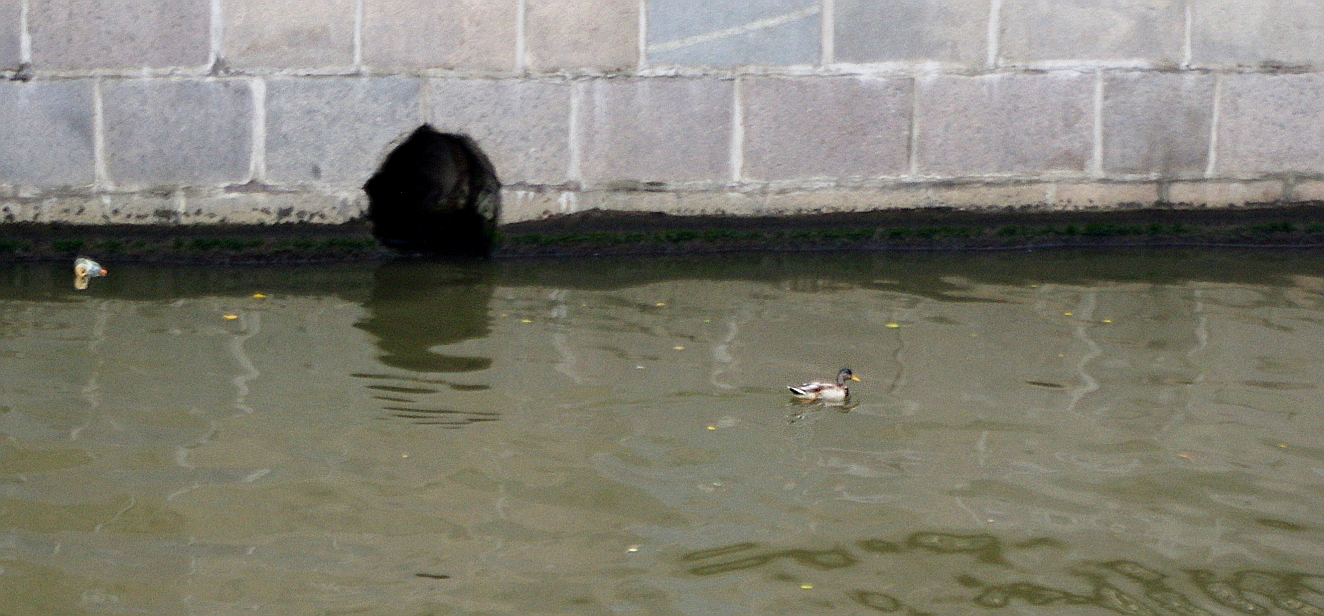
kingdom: Animalia
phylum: Chordata
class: Aves
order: Anseriformes
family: Anatidae
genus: Anas
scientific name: Anas platyrhynchos
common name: Mallard
